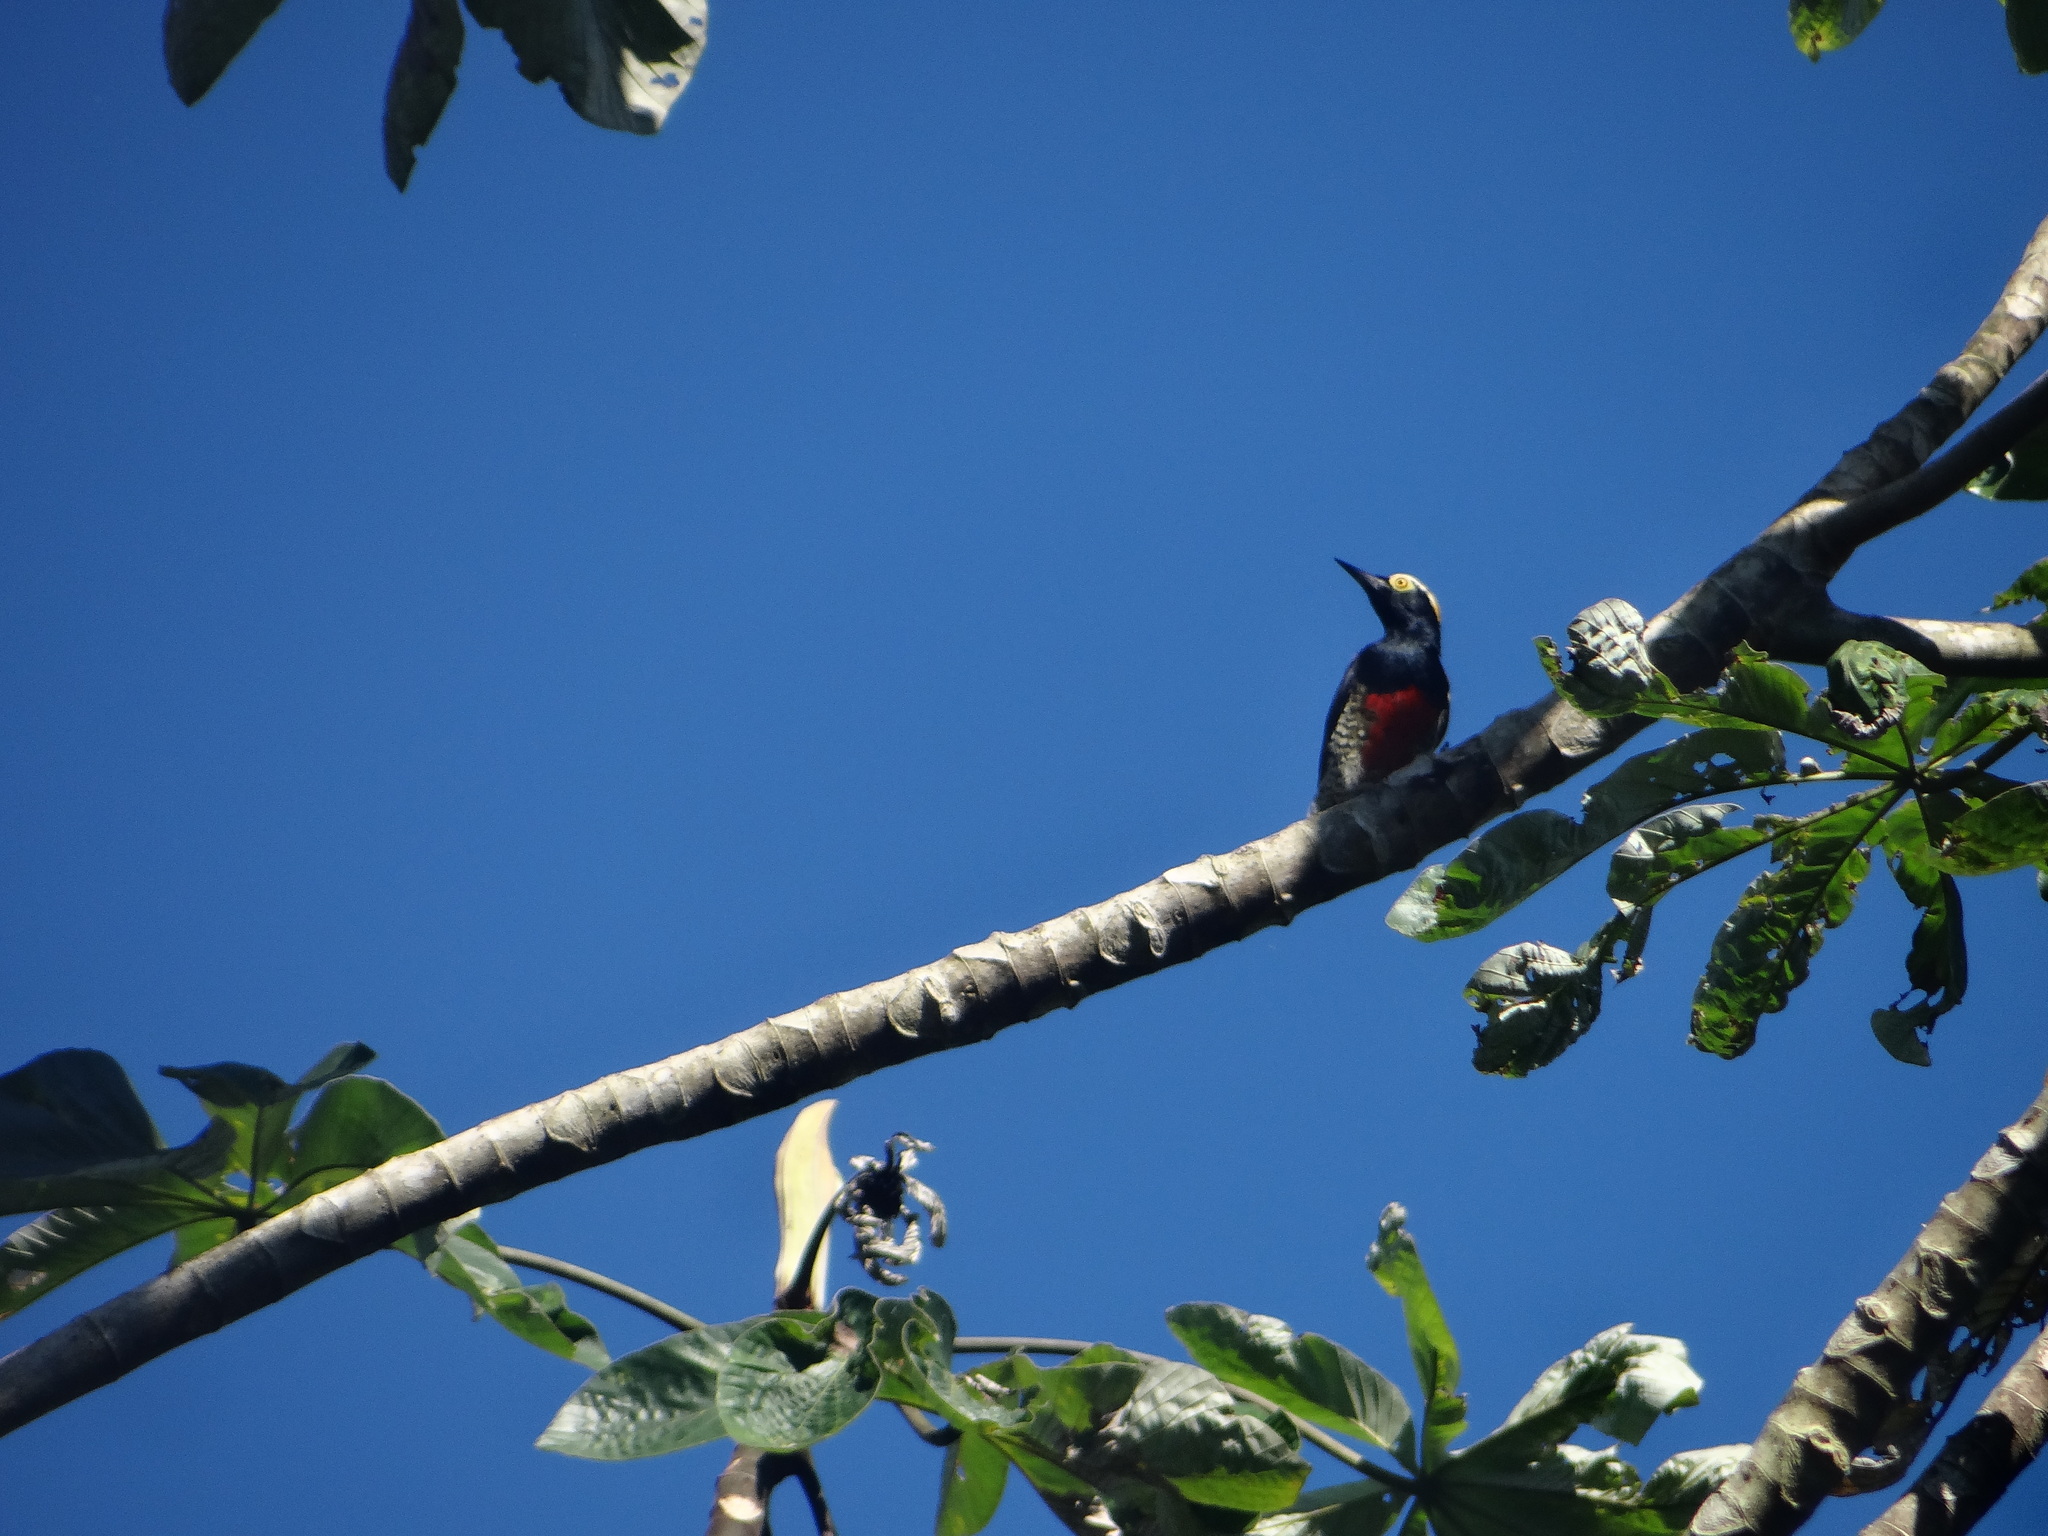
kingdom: Animalia
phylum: Chordata
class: Aves
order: Piciformes
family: Picidae
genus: Melanerpes
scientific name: Melanerpes cruentatus
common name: Yellow-tufted woodpecker
